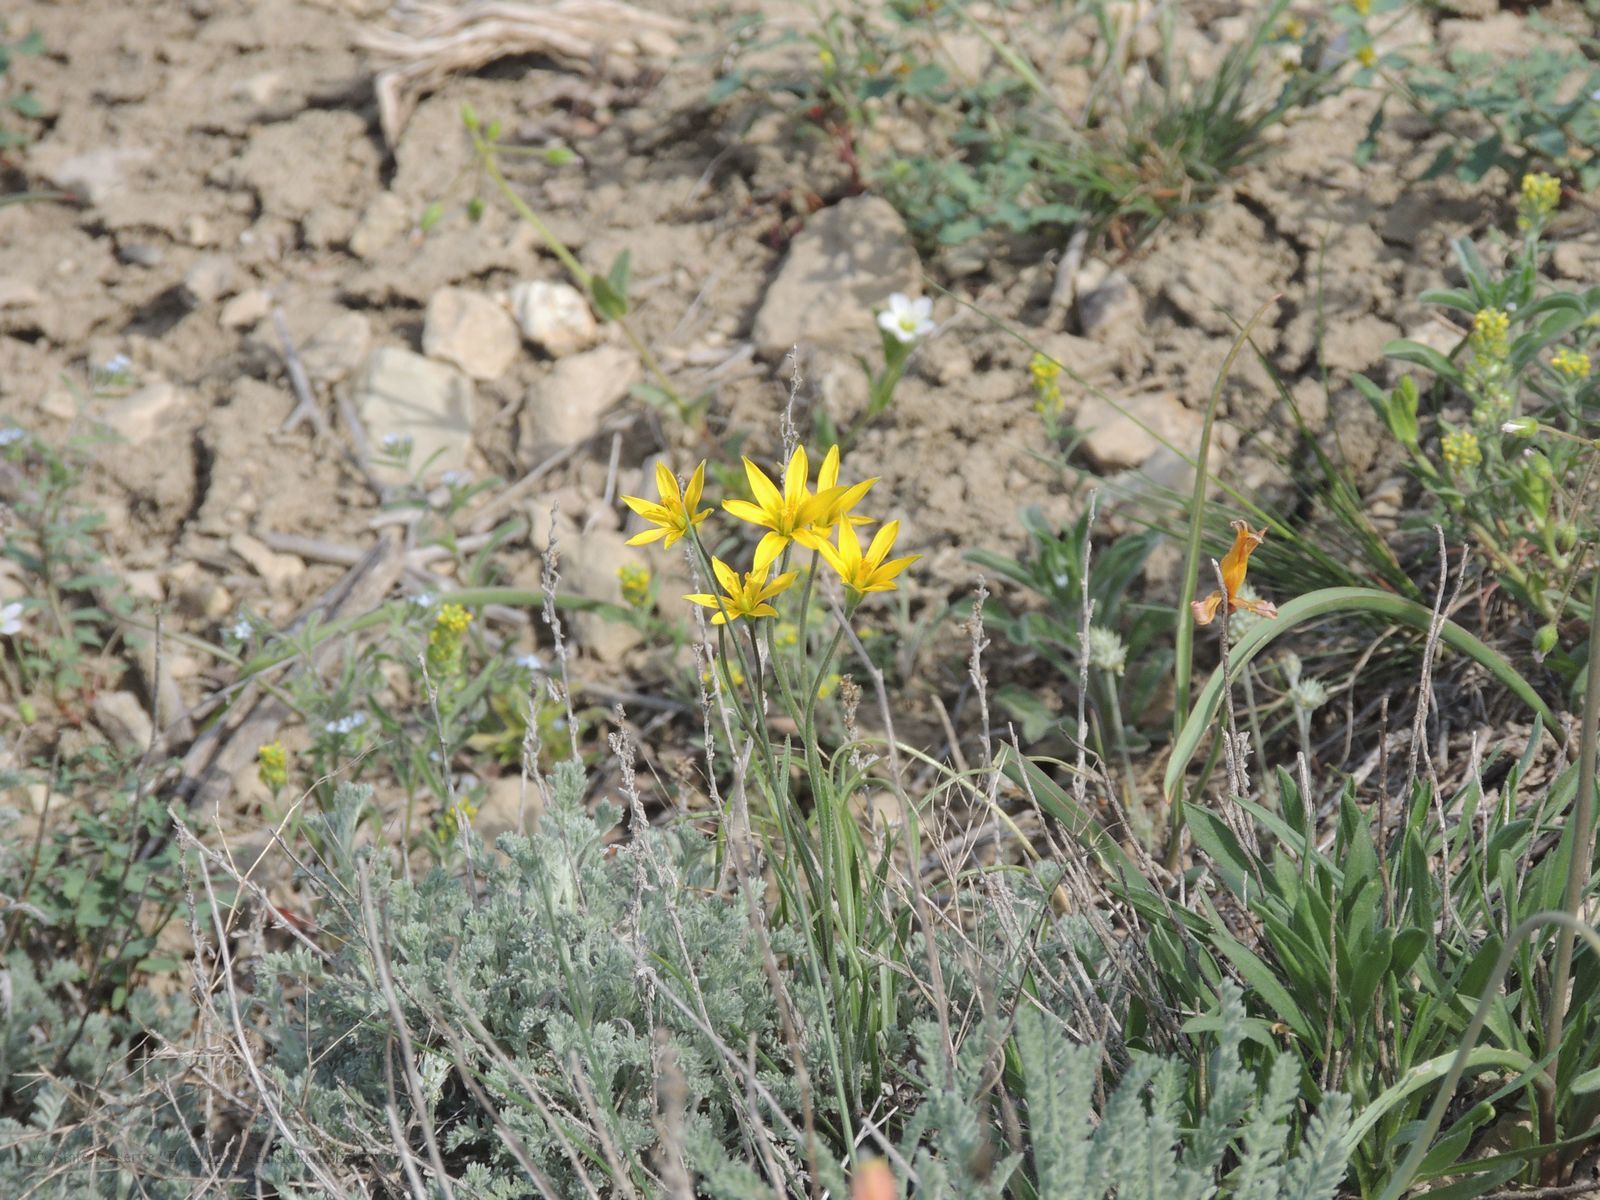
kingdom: Plantae
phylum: Tracheophyta
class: Liliopsida
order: Liliales
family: Liliaceae
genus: Gagea
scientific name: Gagea bulbifera
